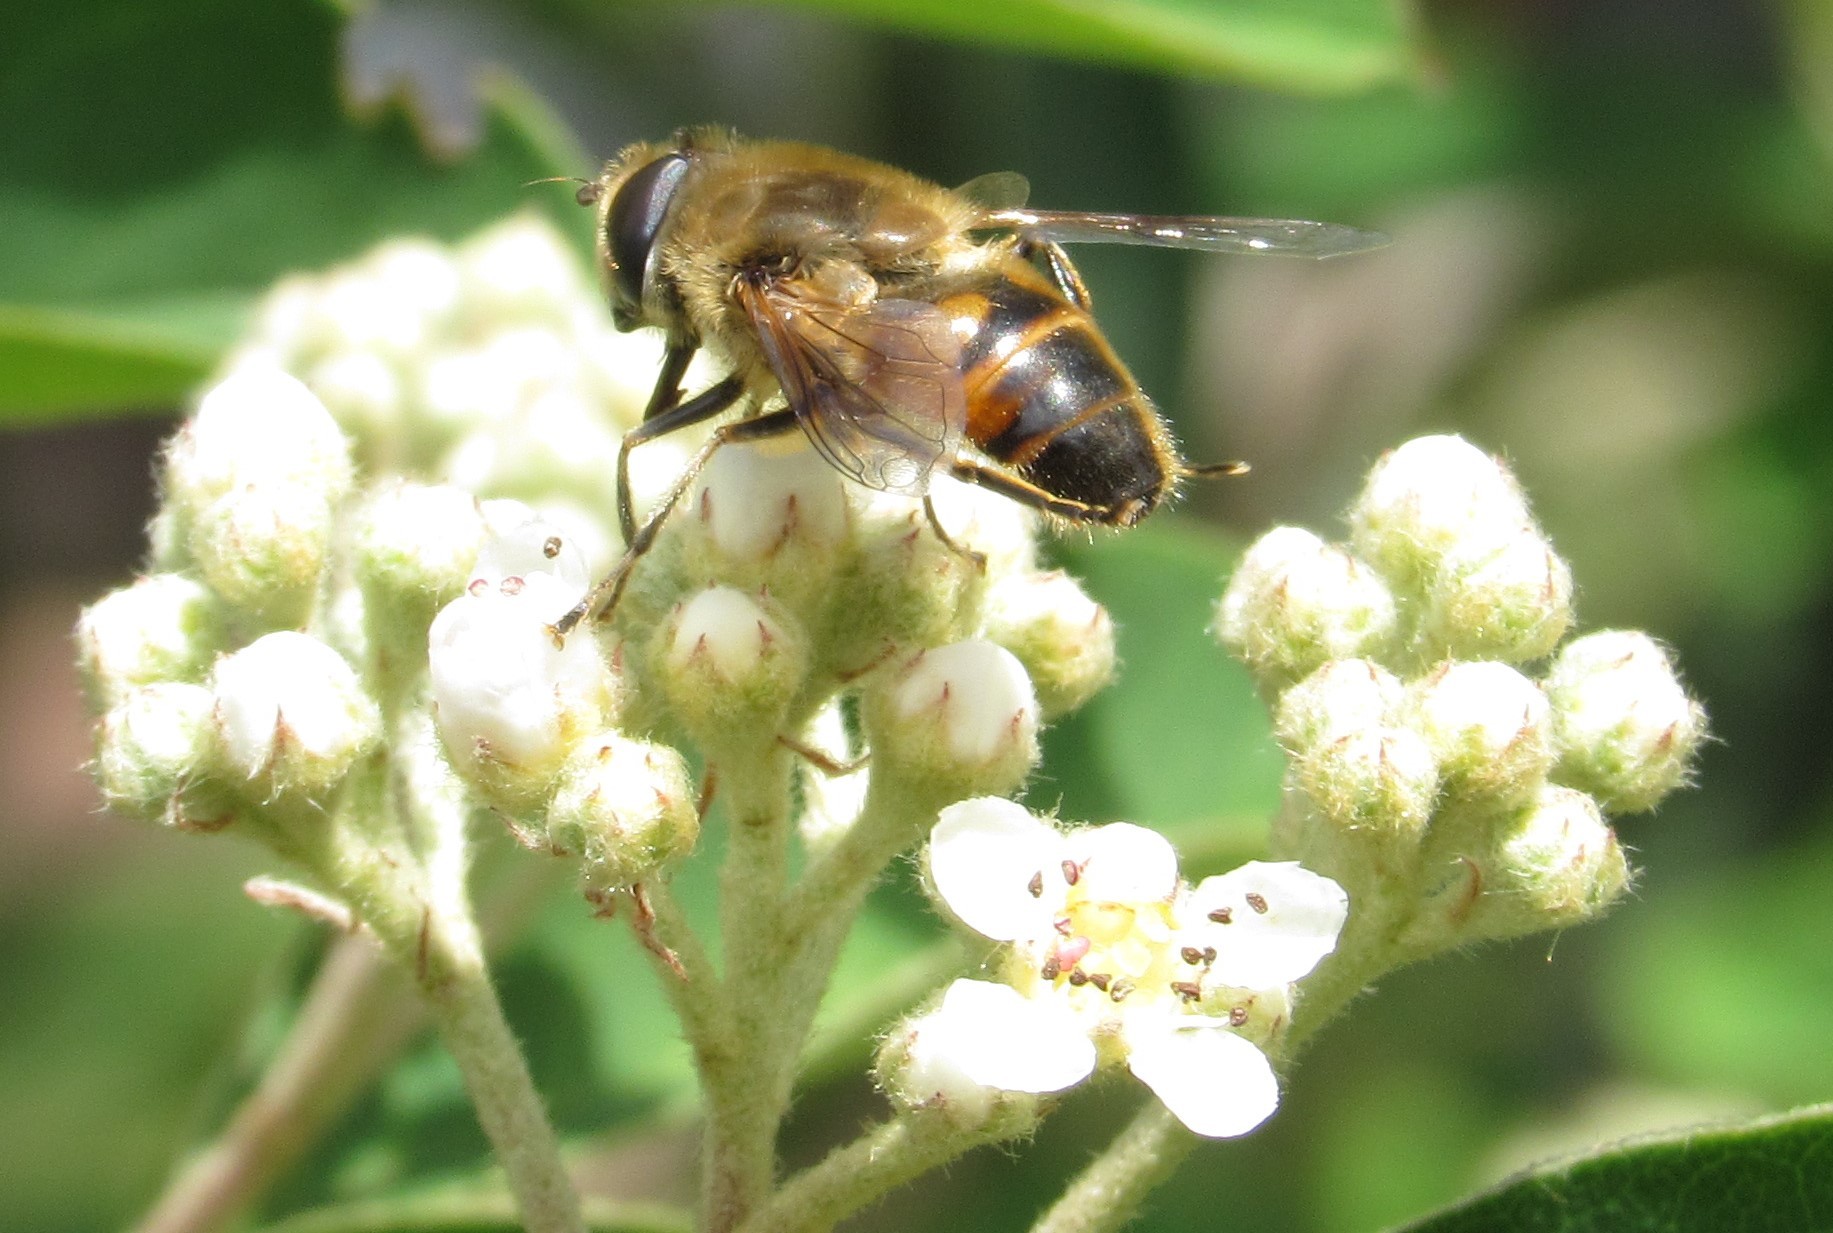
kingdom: Animalia
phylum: Arthropoda
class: Insecta
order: Diptera
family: Syrphidae
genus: Eristalis
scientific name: Eristalis tenax
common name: Drone fly
